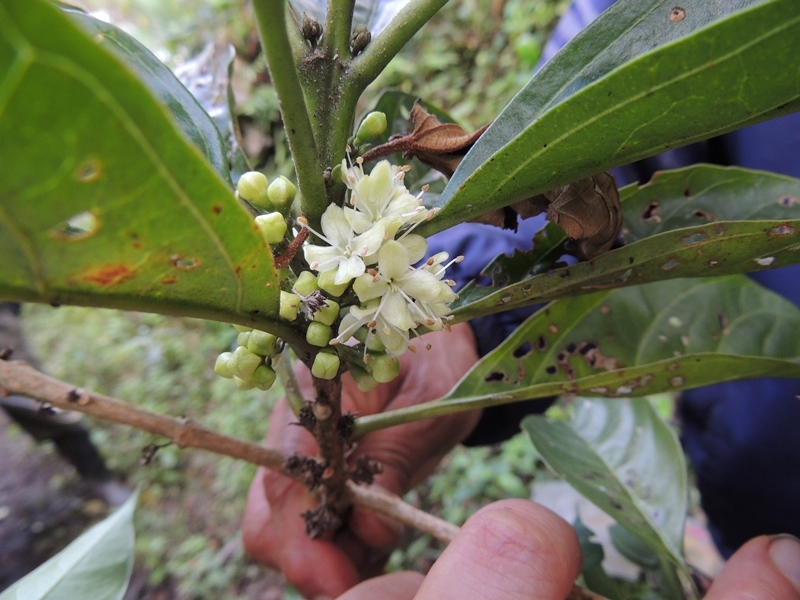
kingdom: Plantae
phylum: Tracheophyta
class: Magnoliopsida
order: Lamiales
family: Lamiaceae
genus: Aegiphila
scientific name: Aegiphila monstrosa
